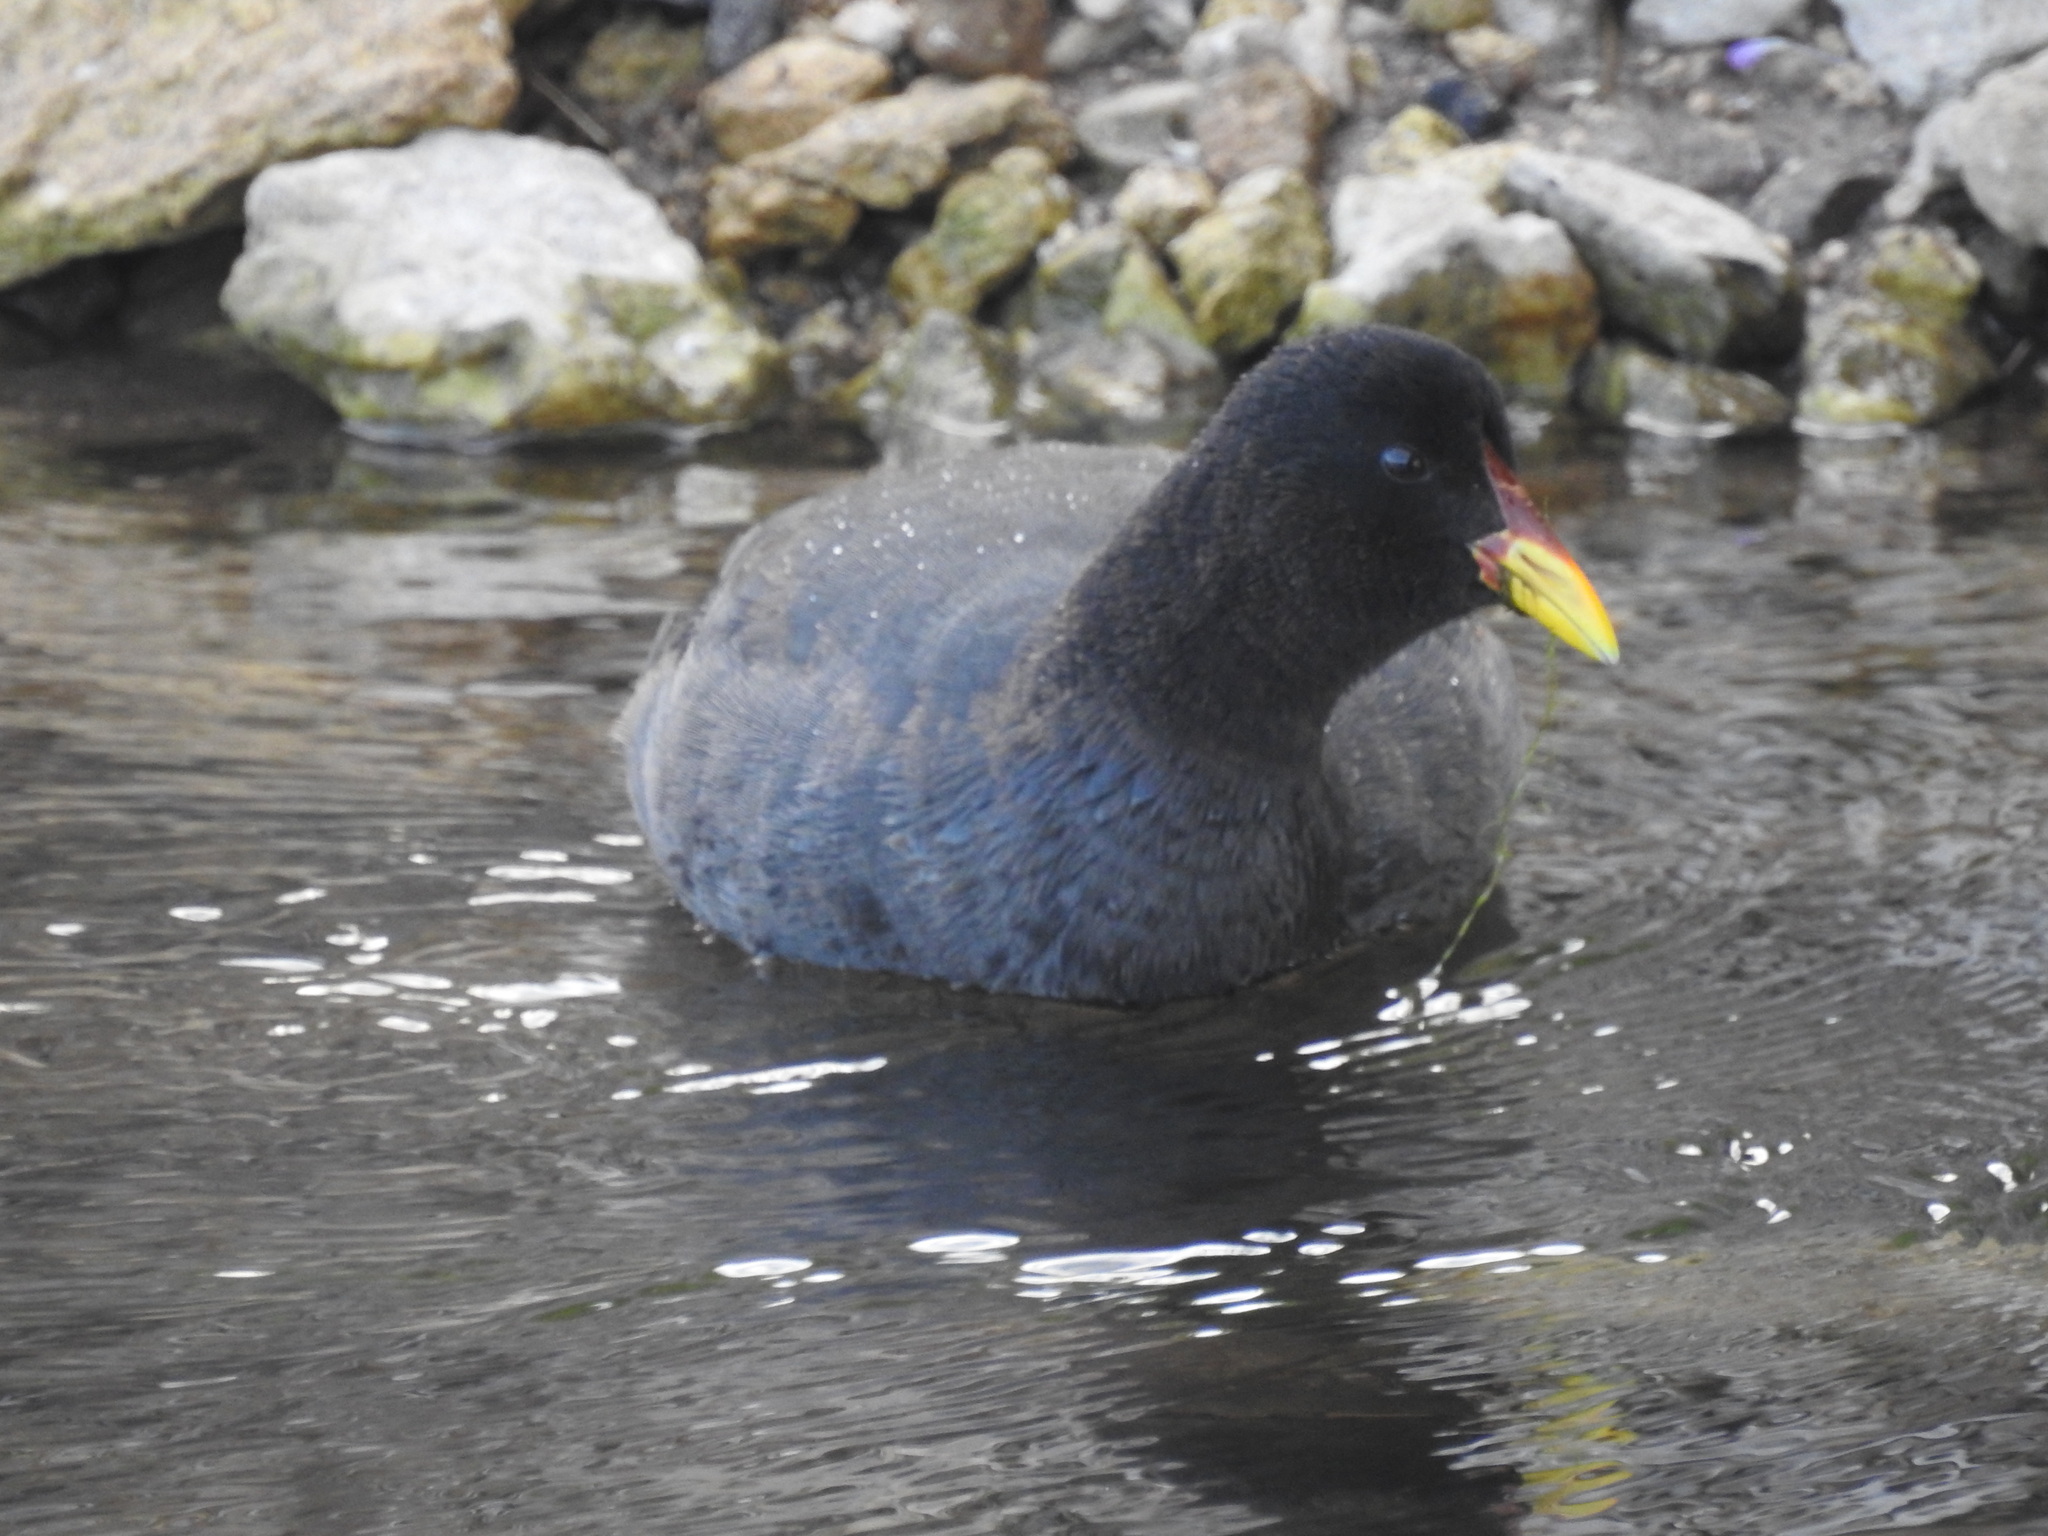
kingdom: Animalia
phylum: Chordata
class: Aves
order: Gruiformes
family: Rallidae
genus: Fulica
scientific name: Fulica rufifrons
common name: Red-fronted coot
